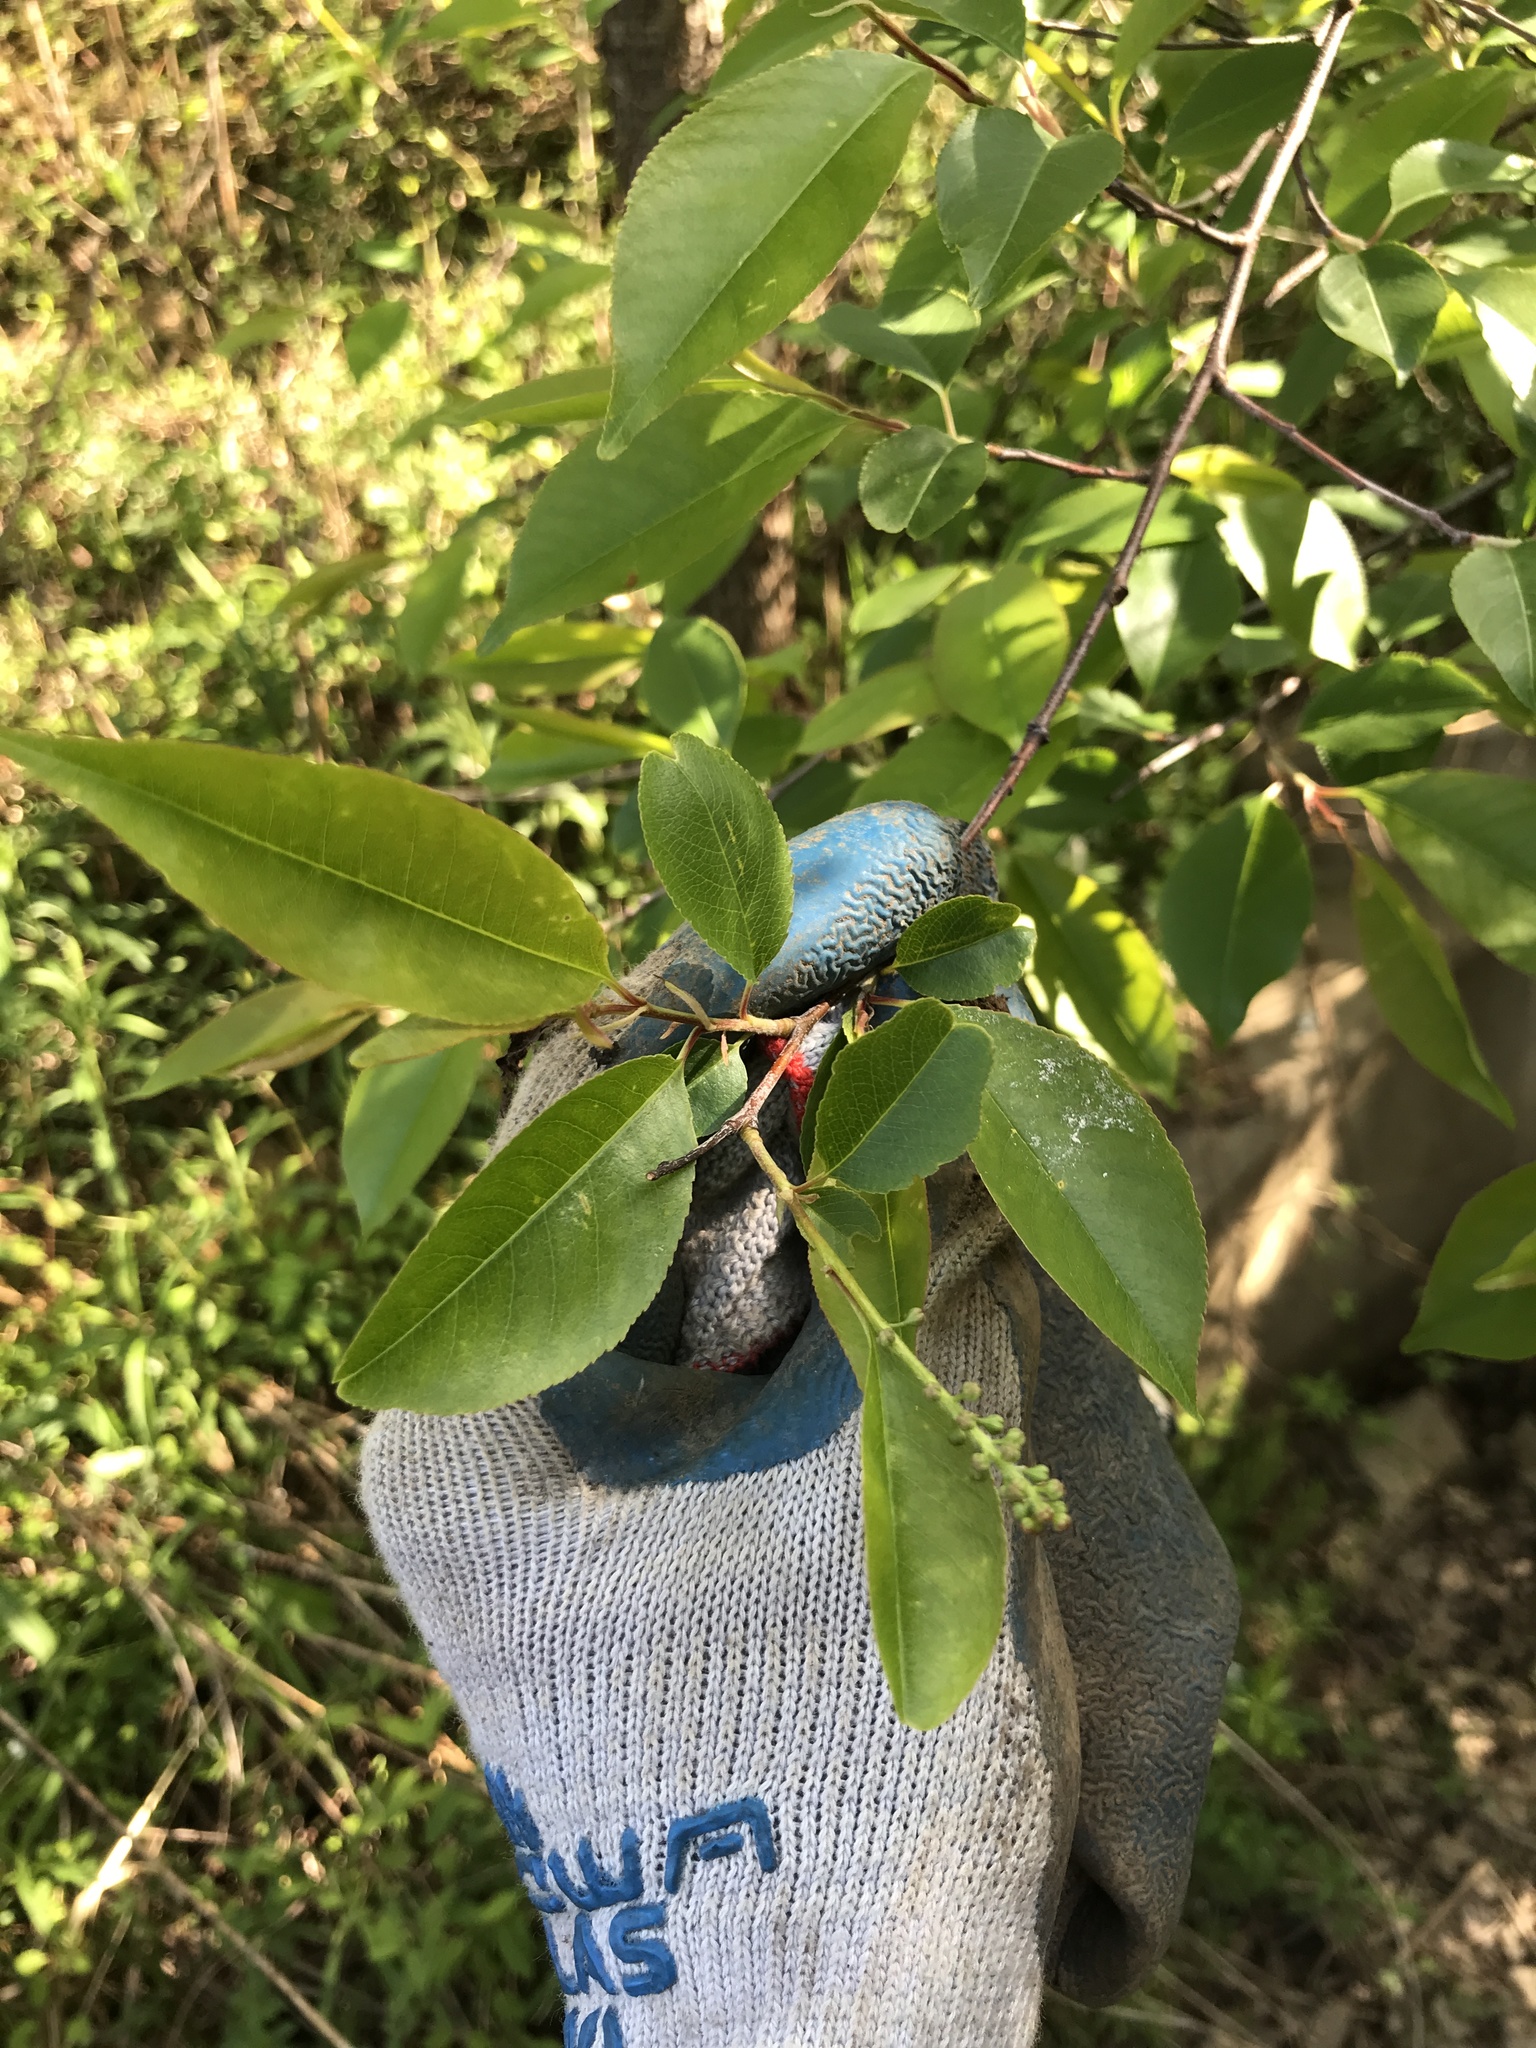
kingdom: Plantae
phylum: Tracheophyta
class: Magnoliopsida
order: Rosales
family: Rosaceae
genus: Prunus
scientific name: Prunus serotina
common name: Black cherry
